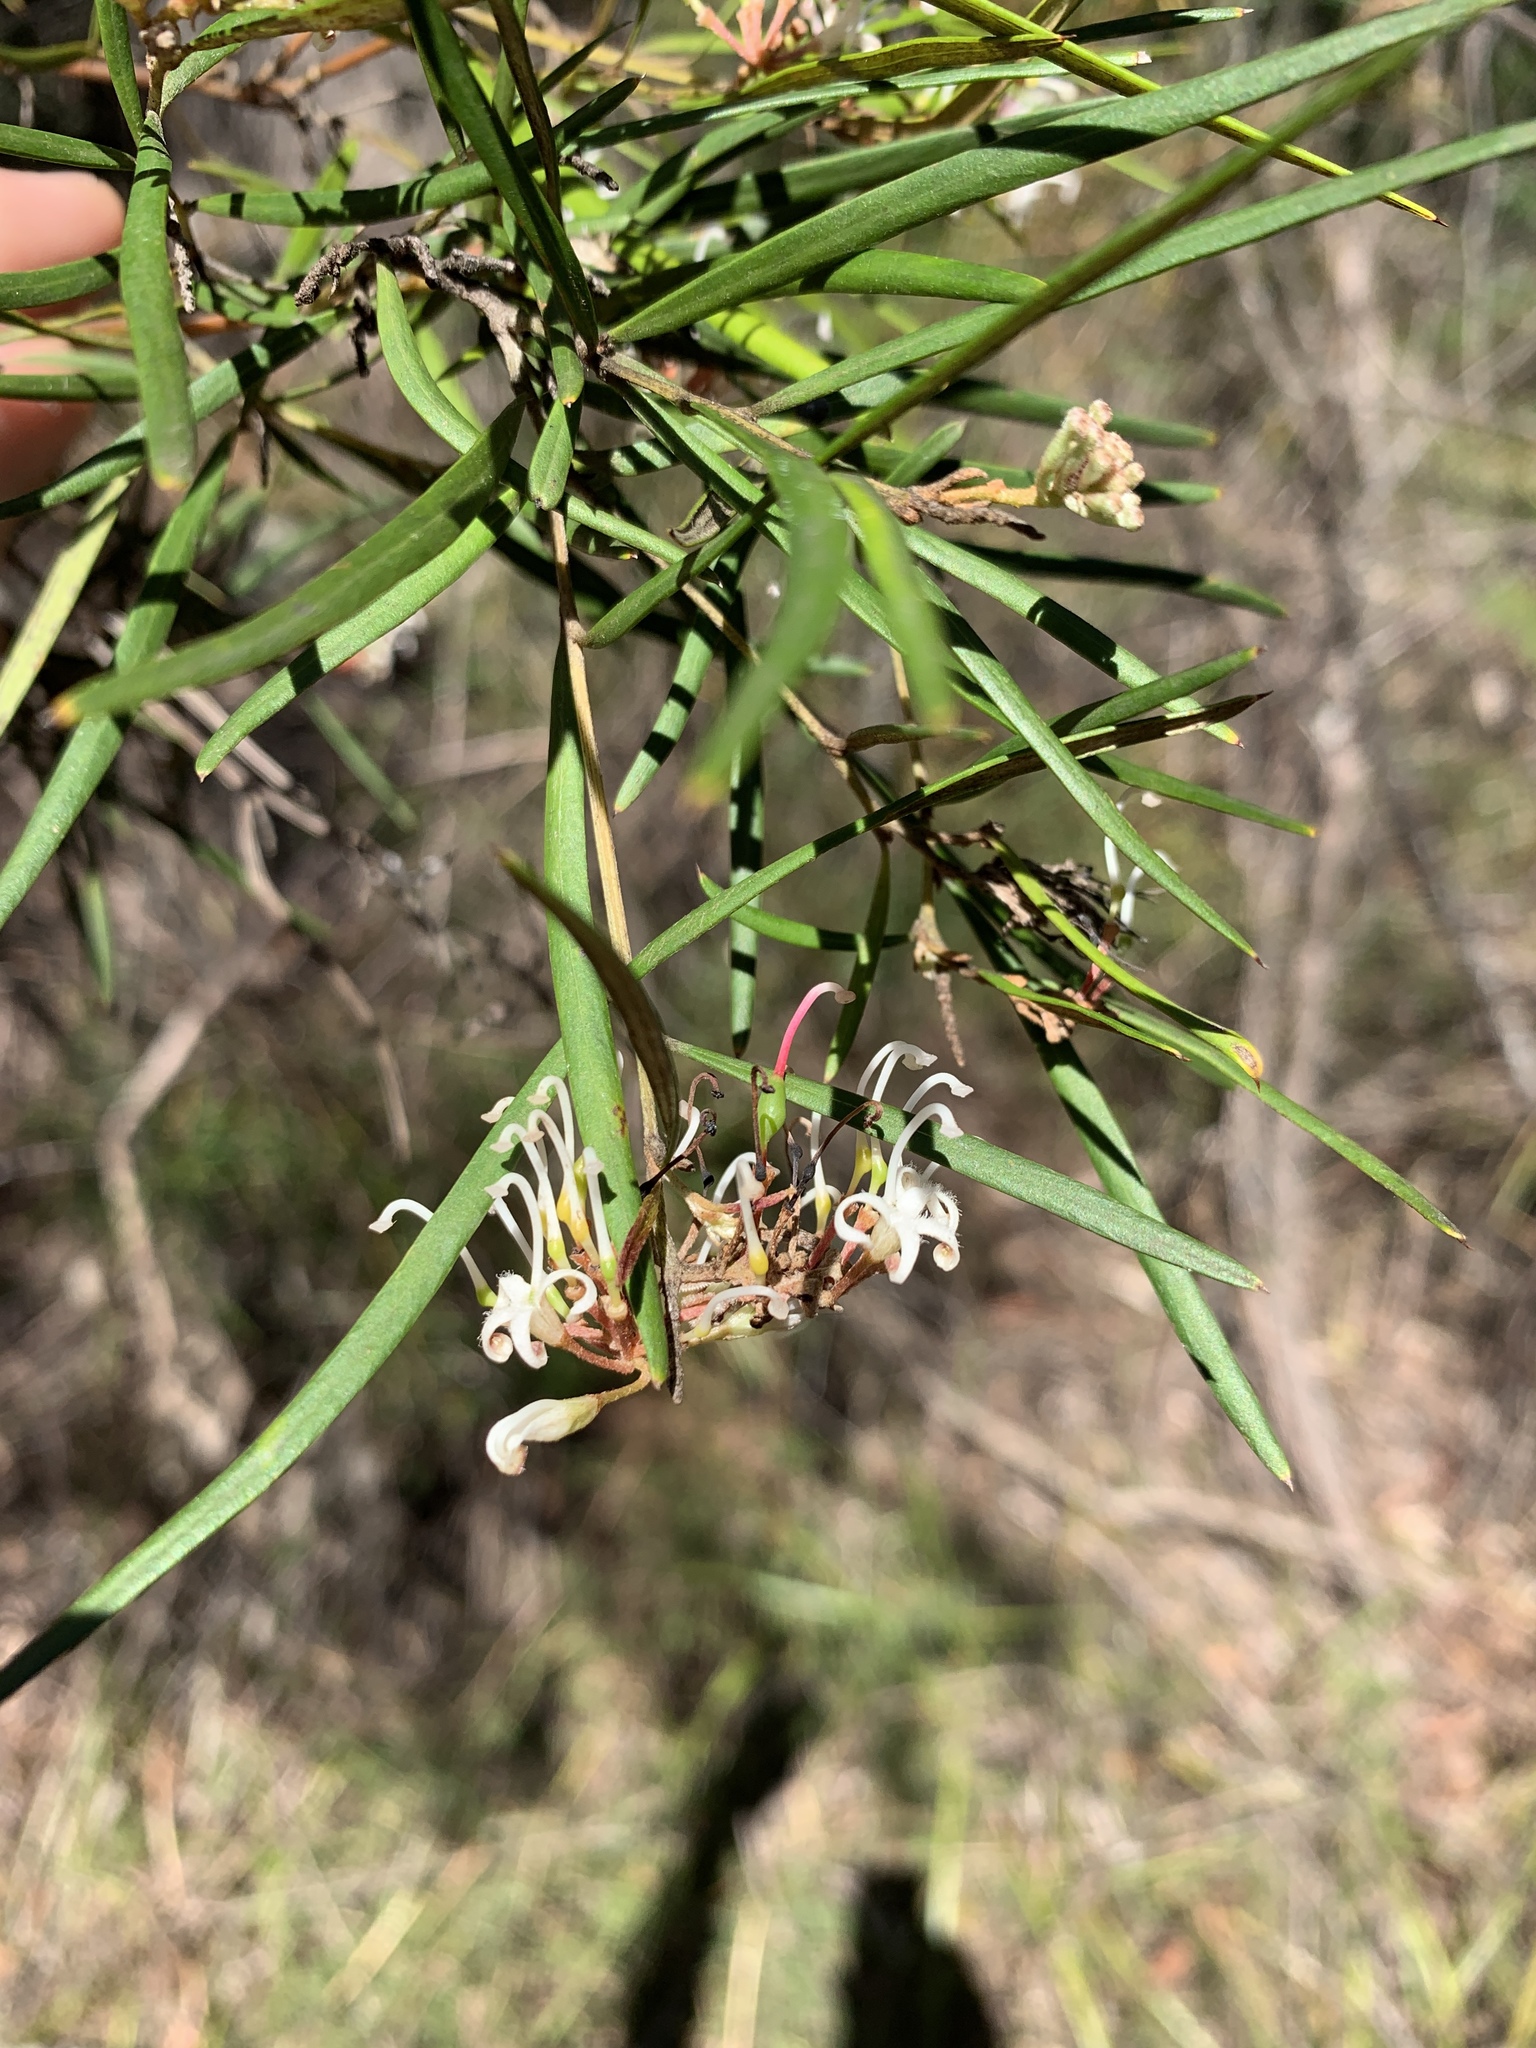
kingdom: Plantae
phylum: Tracheophyta
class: Magnoliopsida
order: Proteales
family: Proteaceae
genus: Grevillea
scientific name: Grevillea linearifolia
